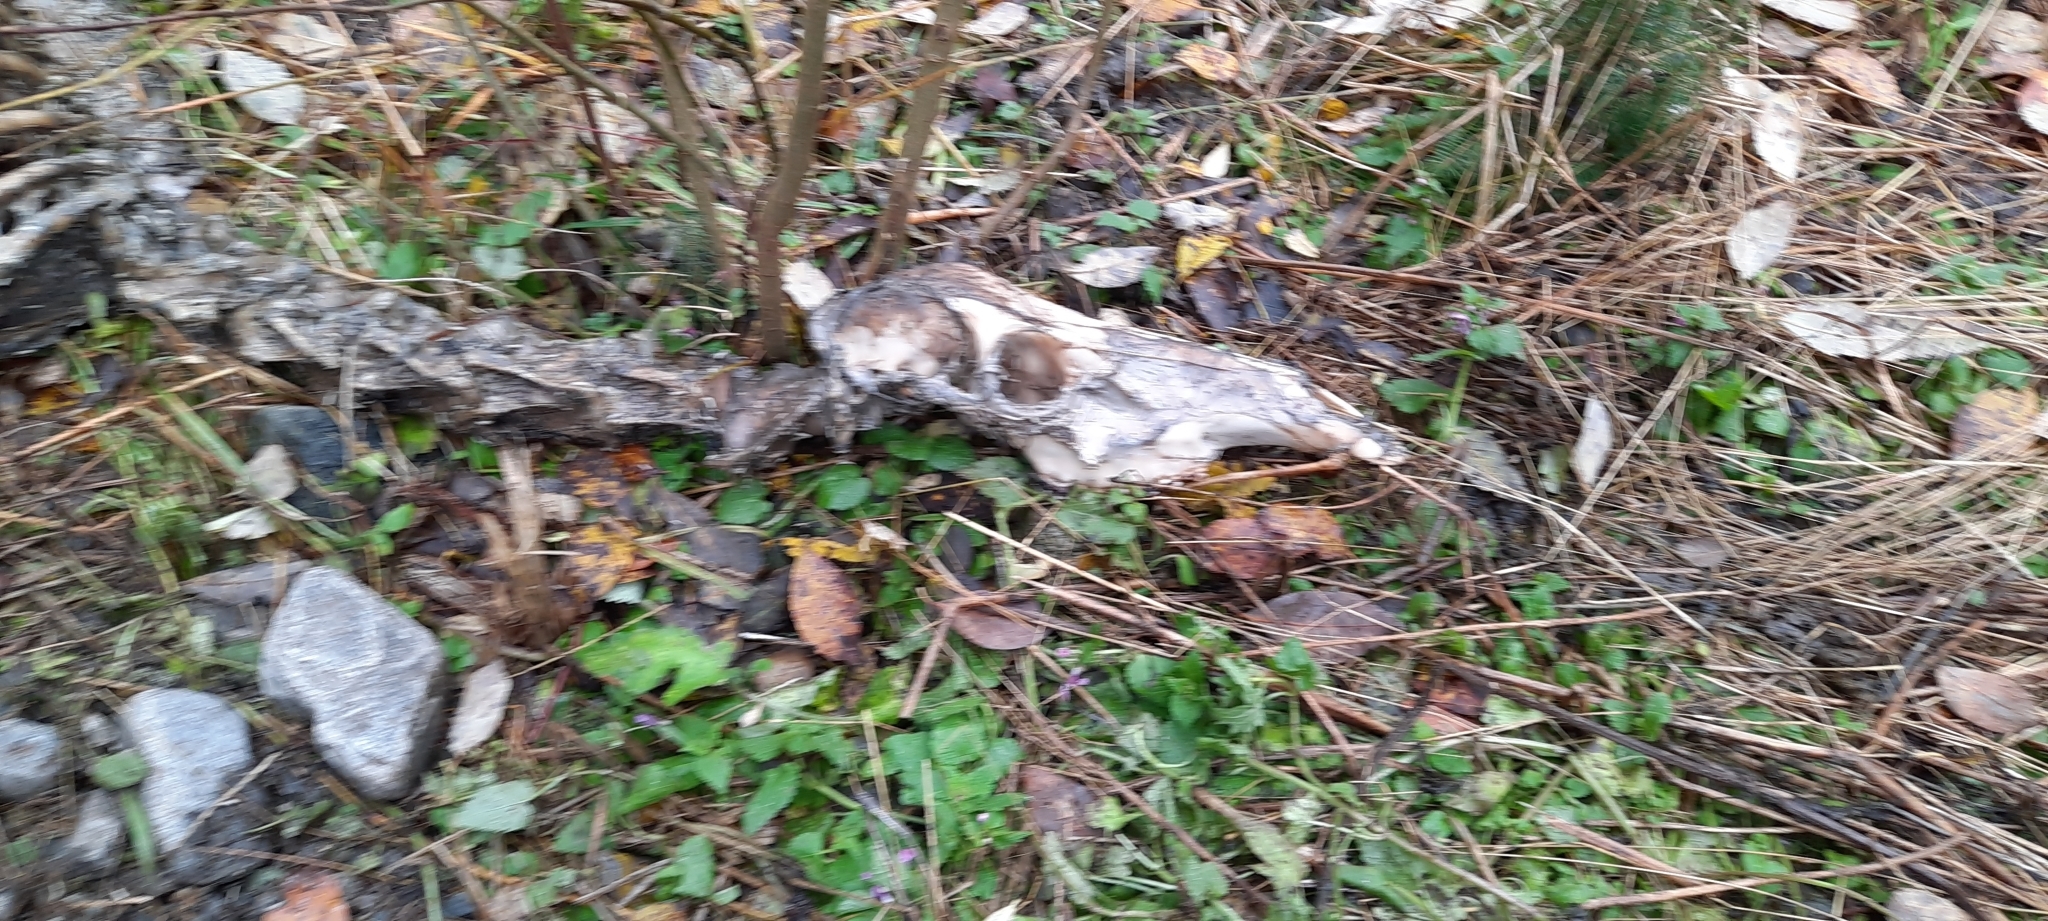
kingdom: Animalia
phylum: Chordata
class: Mammalia
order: Artiodactyla
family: Cervidae
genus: Cervus
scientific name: Cervus elaphus
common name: Red deer
